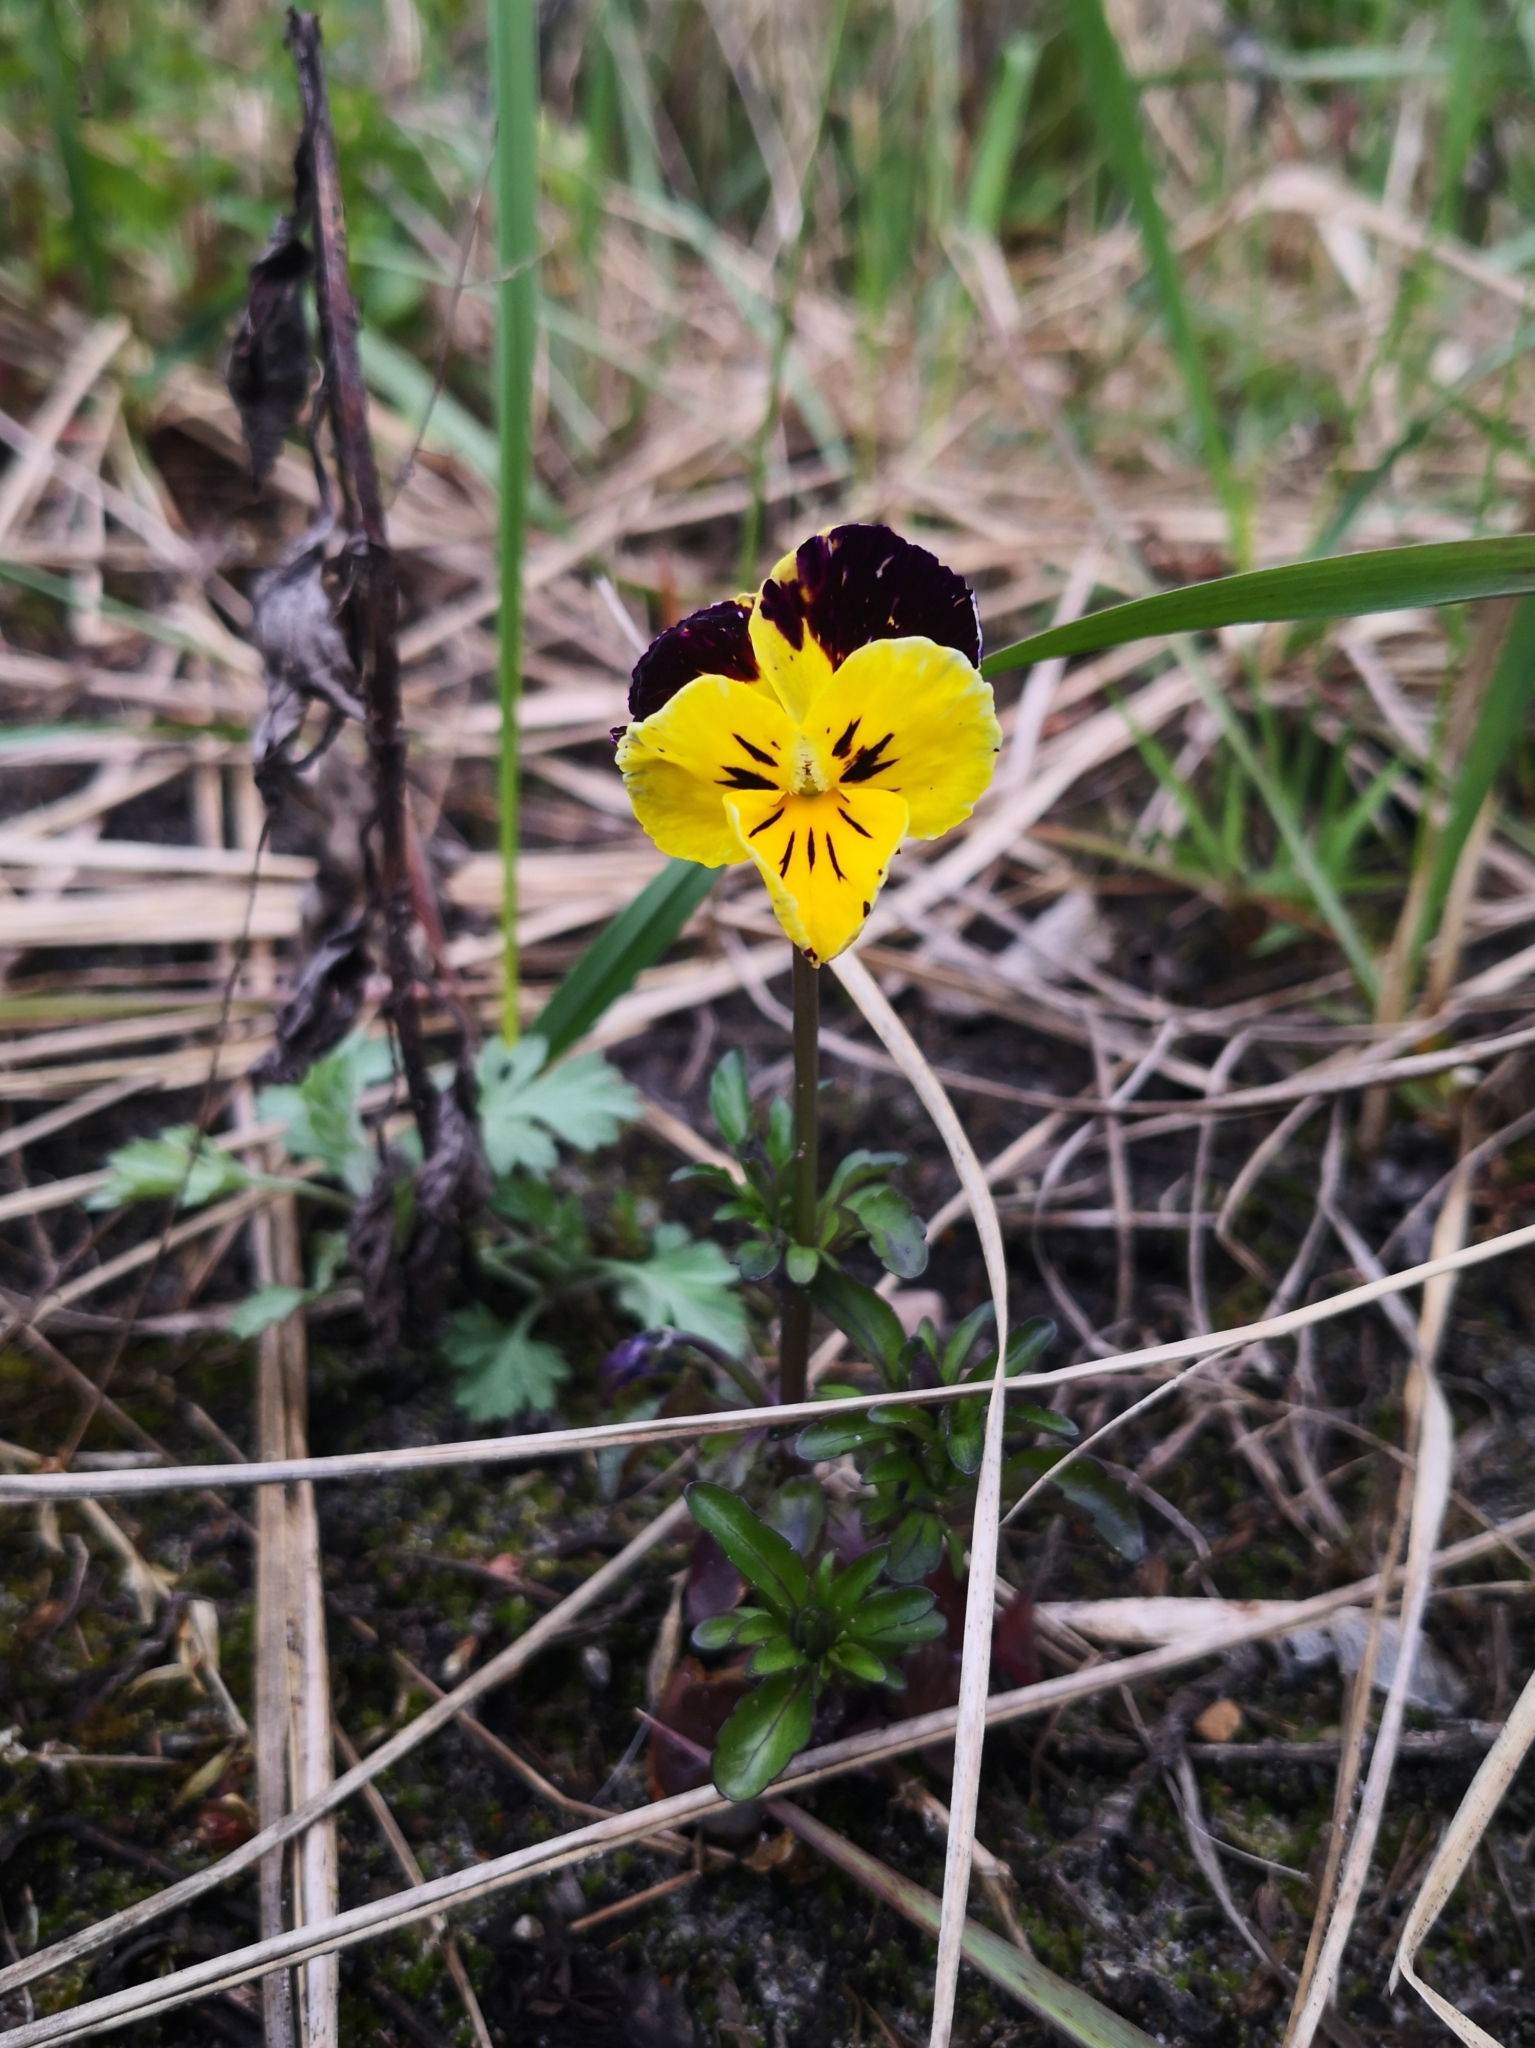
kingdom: Plantae
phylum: Tracheophyta
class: Magnoliopsida
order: Malpighiales
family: Violaceae
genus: Viola
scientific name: Viola wittrockiana
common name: Garden pansy
